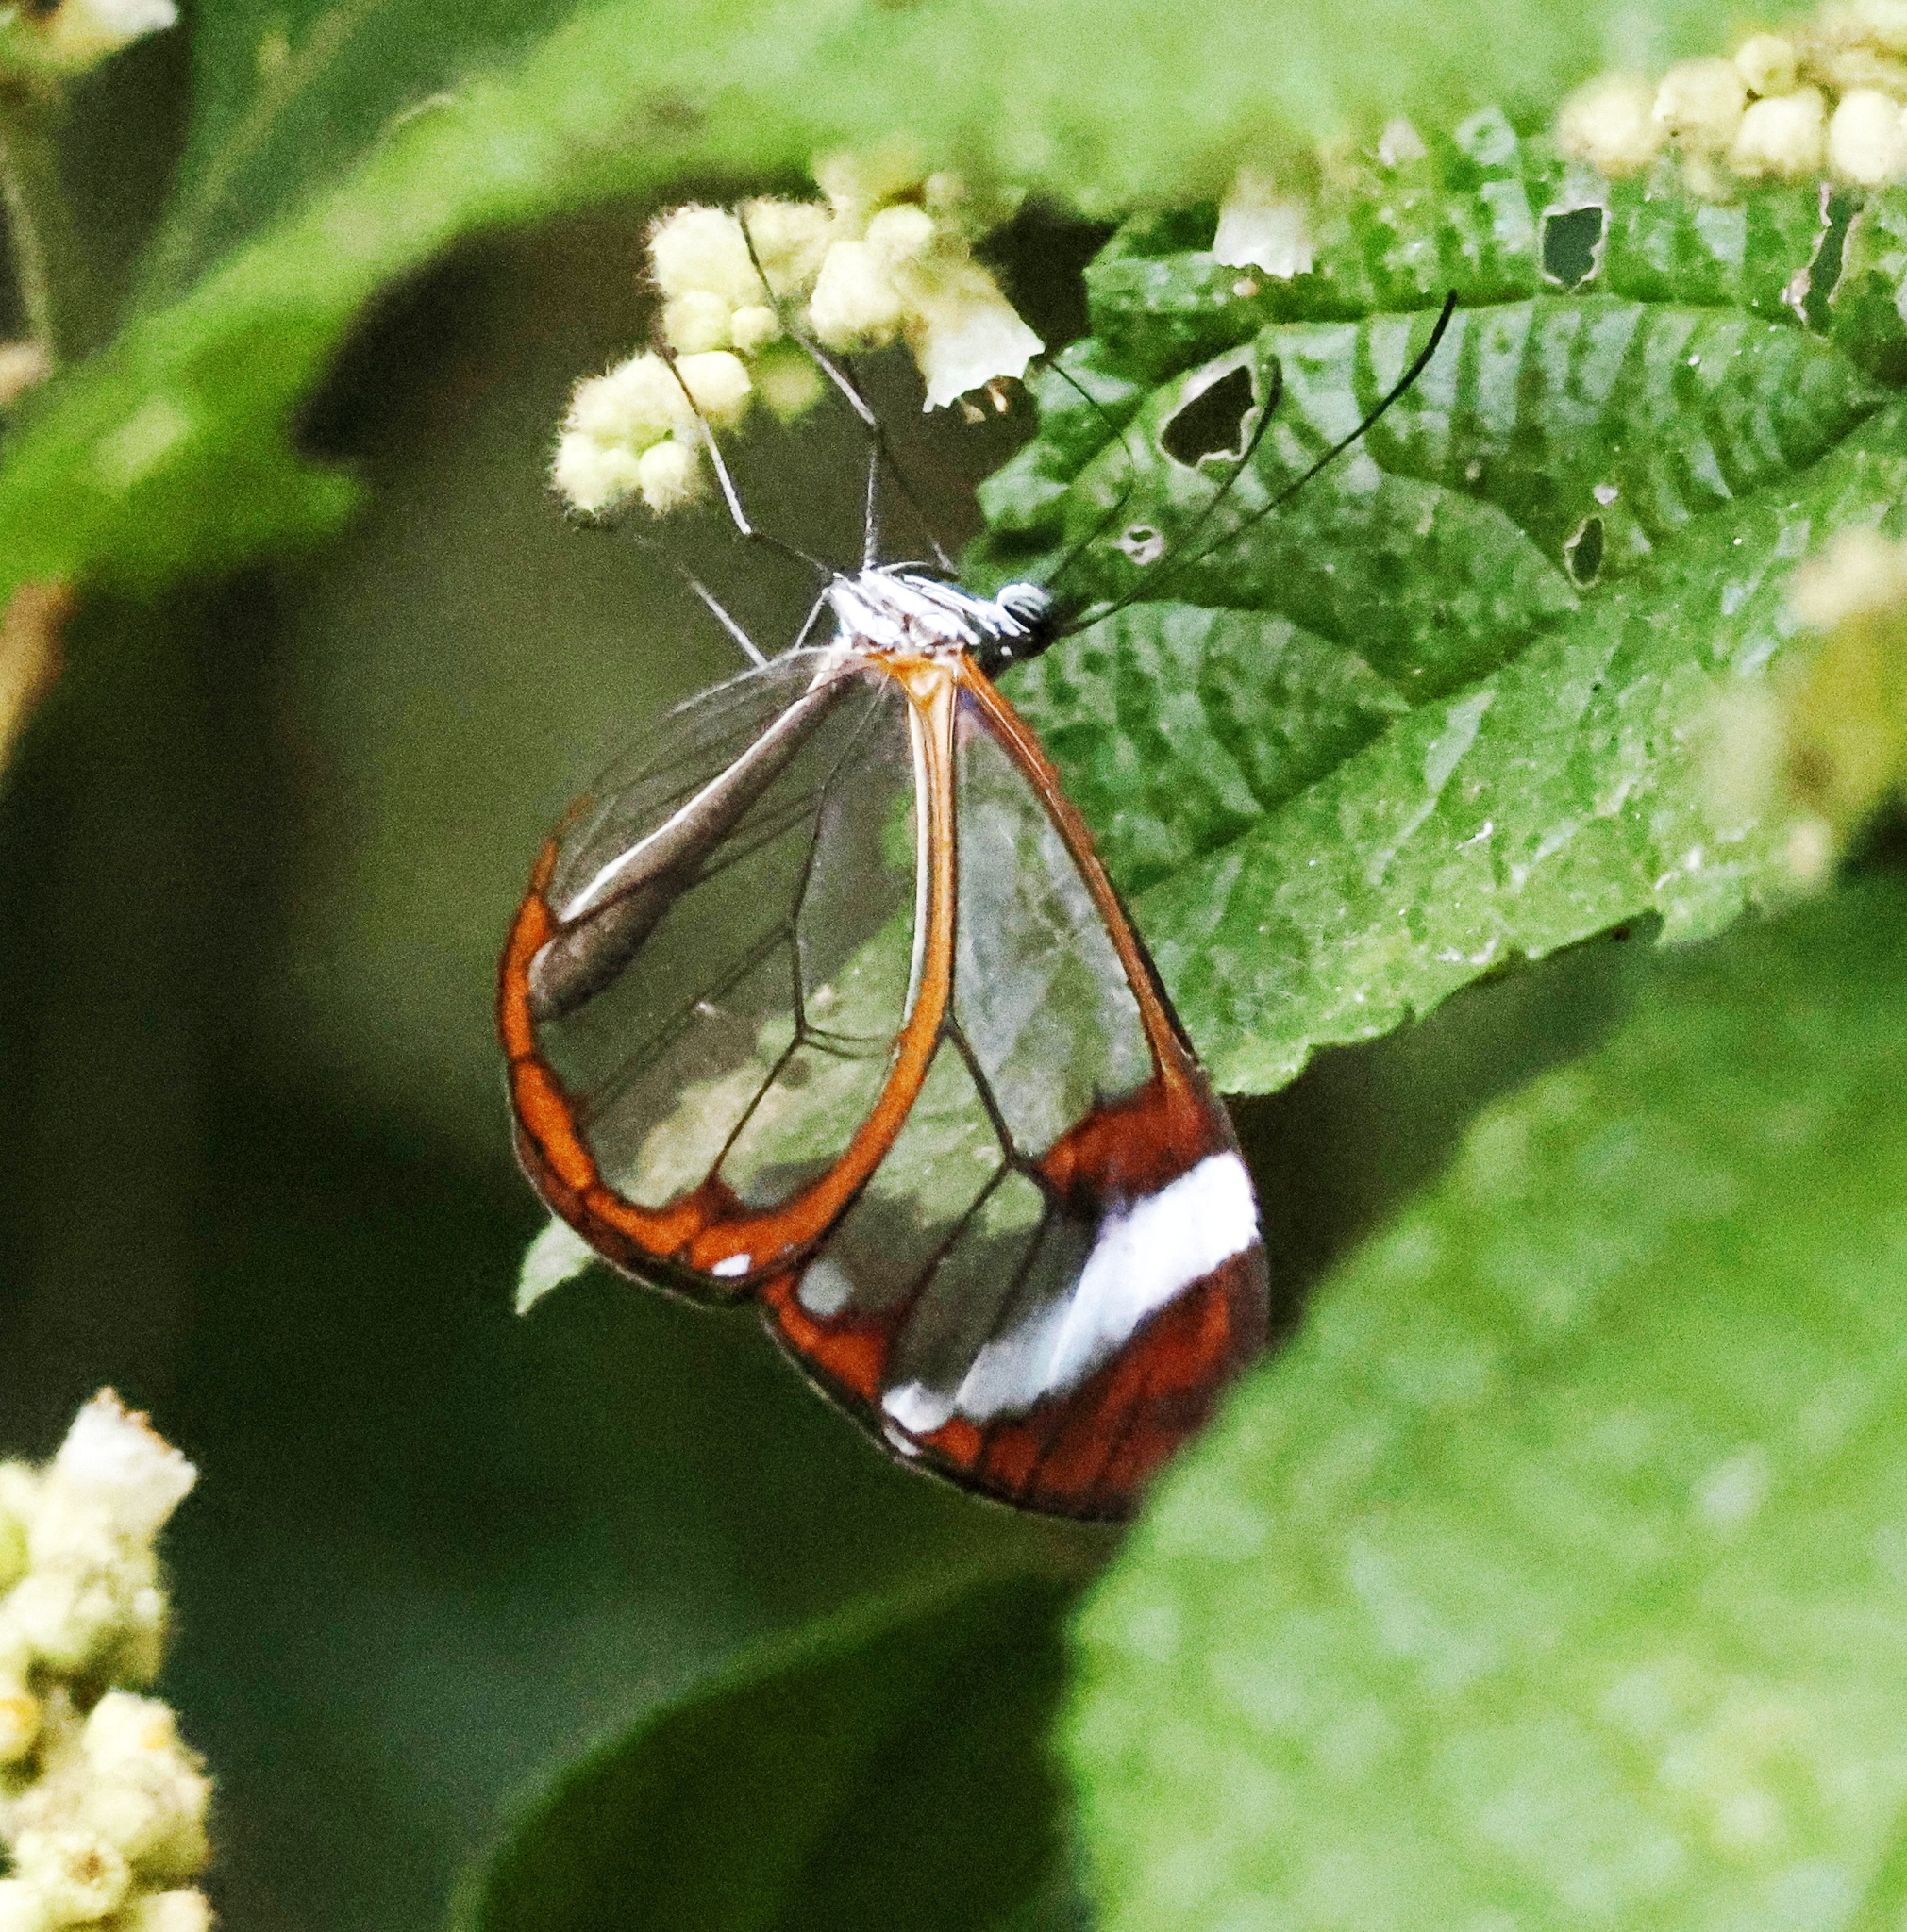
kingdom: Animalia
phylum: Arthropoda
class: Insecta
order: Lepidoptera
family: Nymphalidae
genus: Greta
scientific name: Greta morgane
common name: Thick-tipped greta
